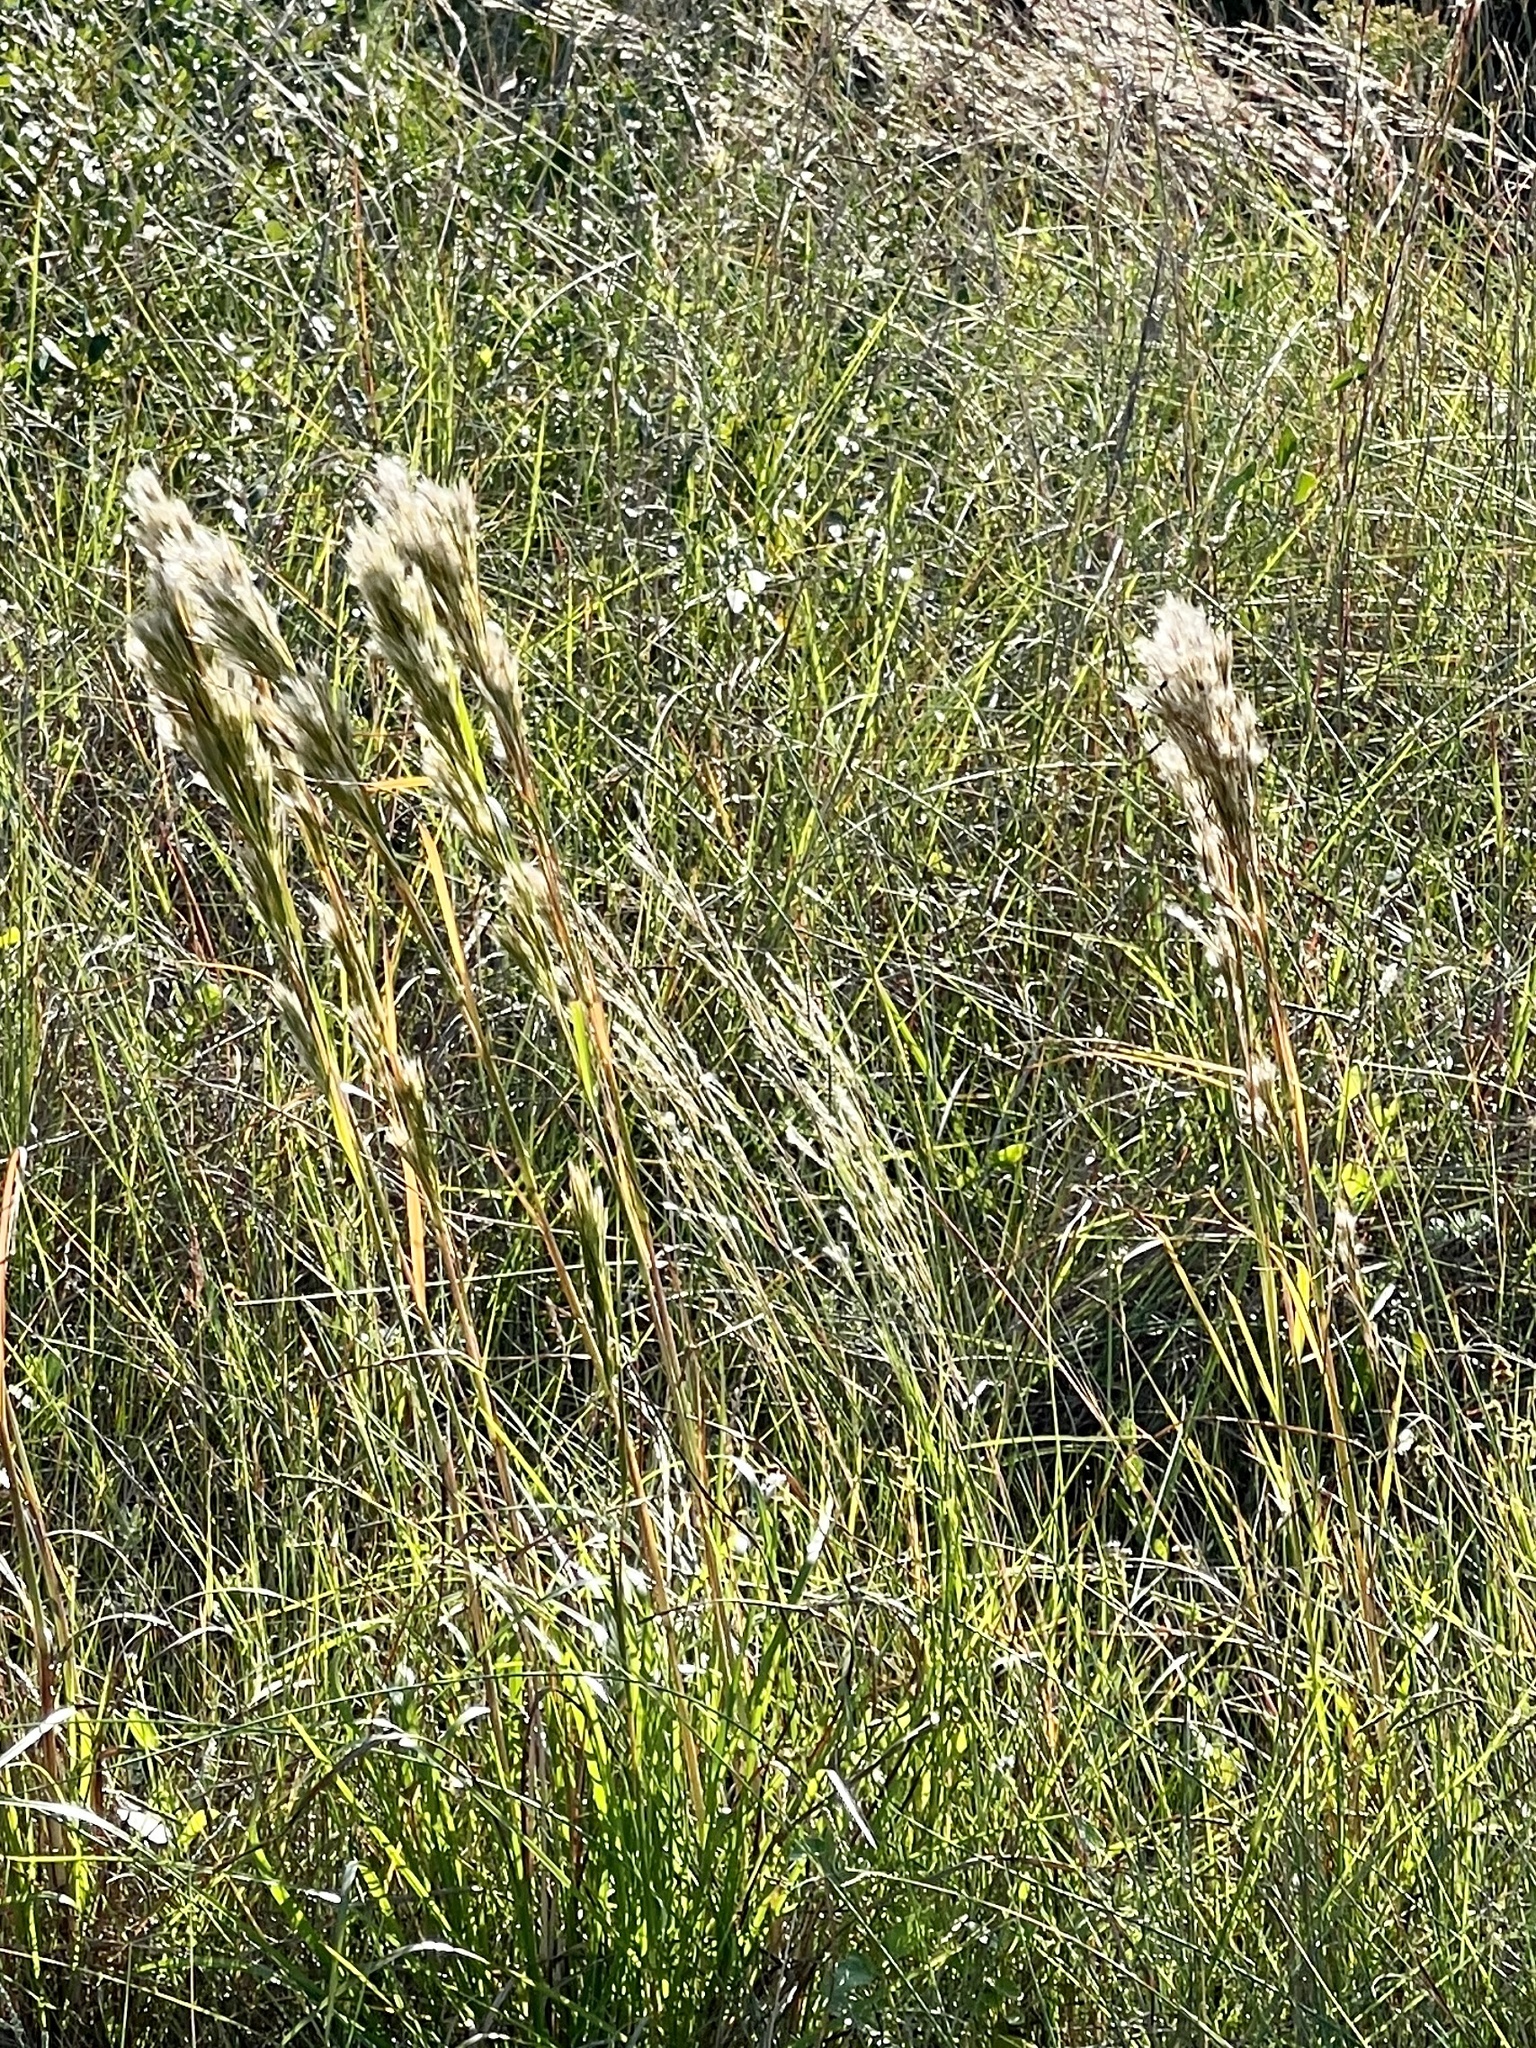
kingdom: Plantae
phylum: Tracheophyta
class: Liliopsida
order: Poales
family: Poaceae
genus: Andropogon
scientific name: Andropogon tenuispatheus
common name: Bushy bluestem
